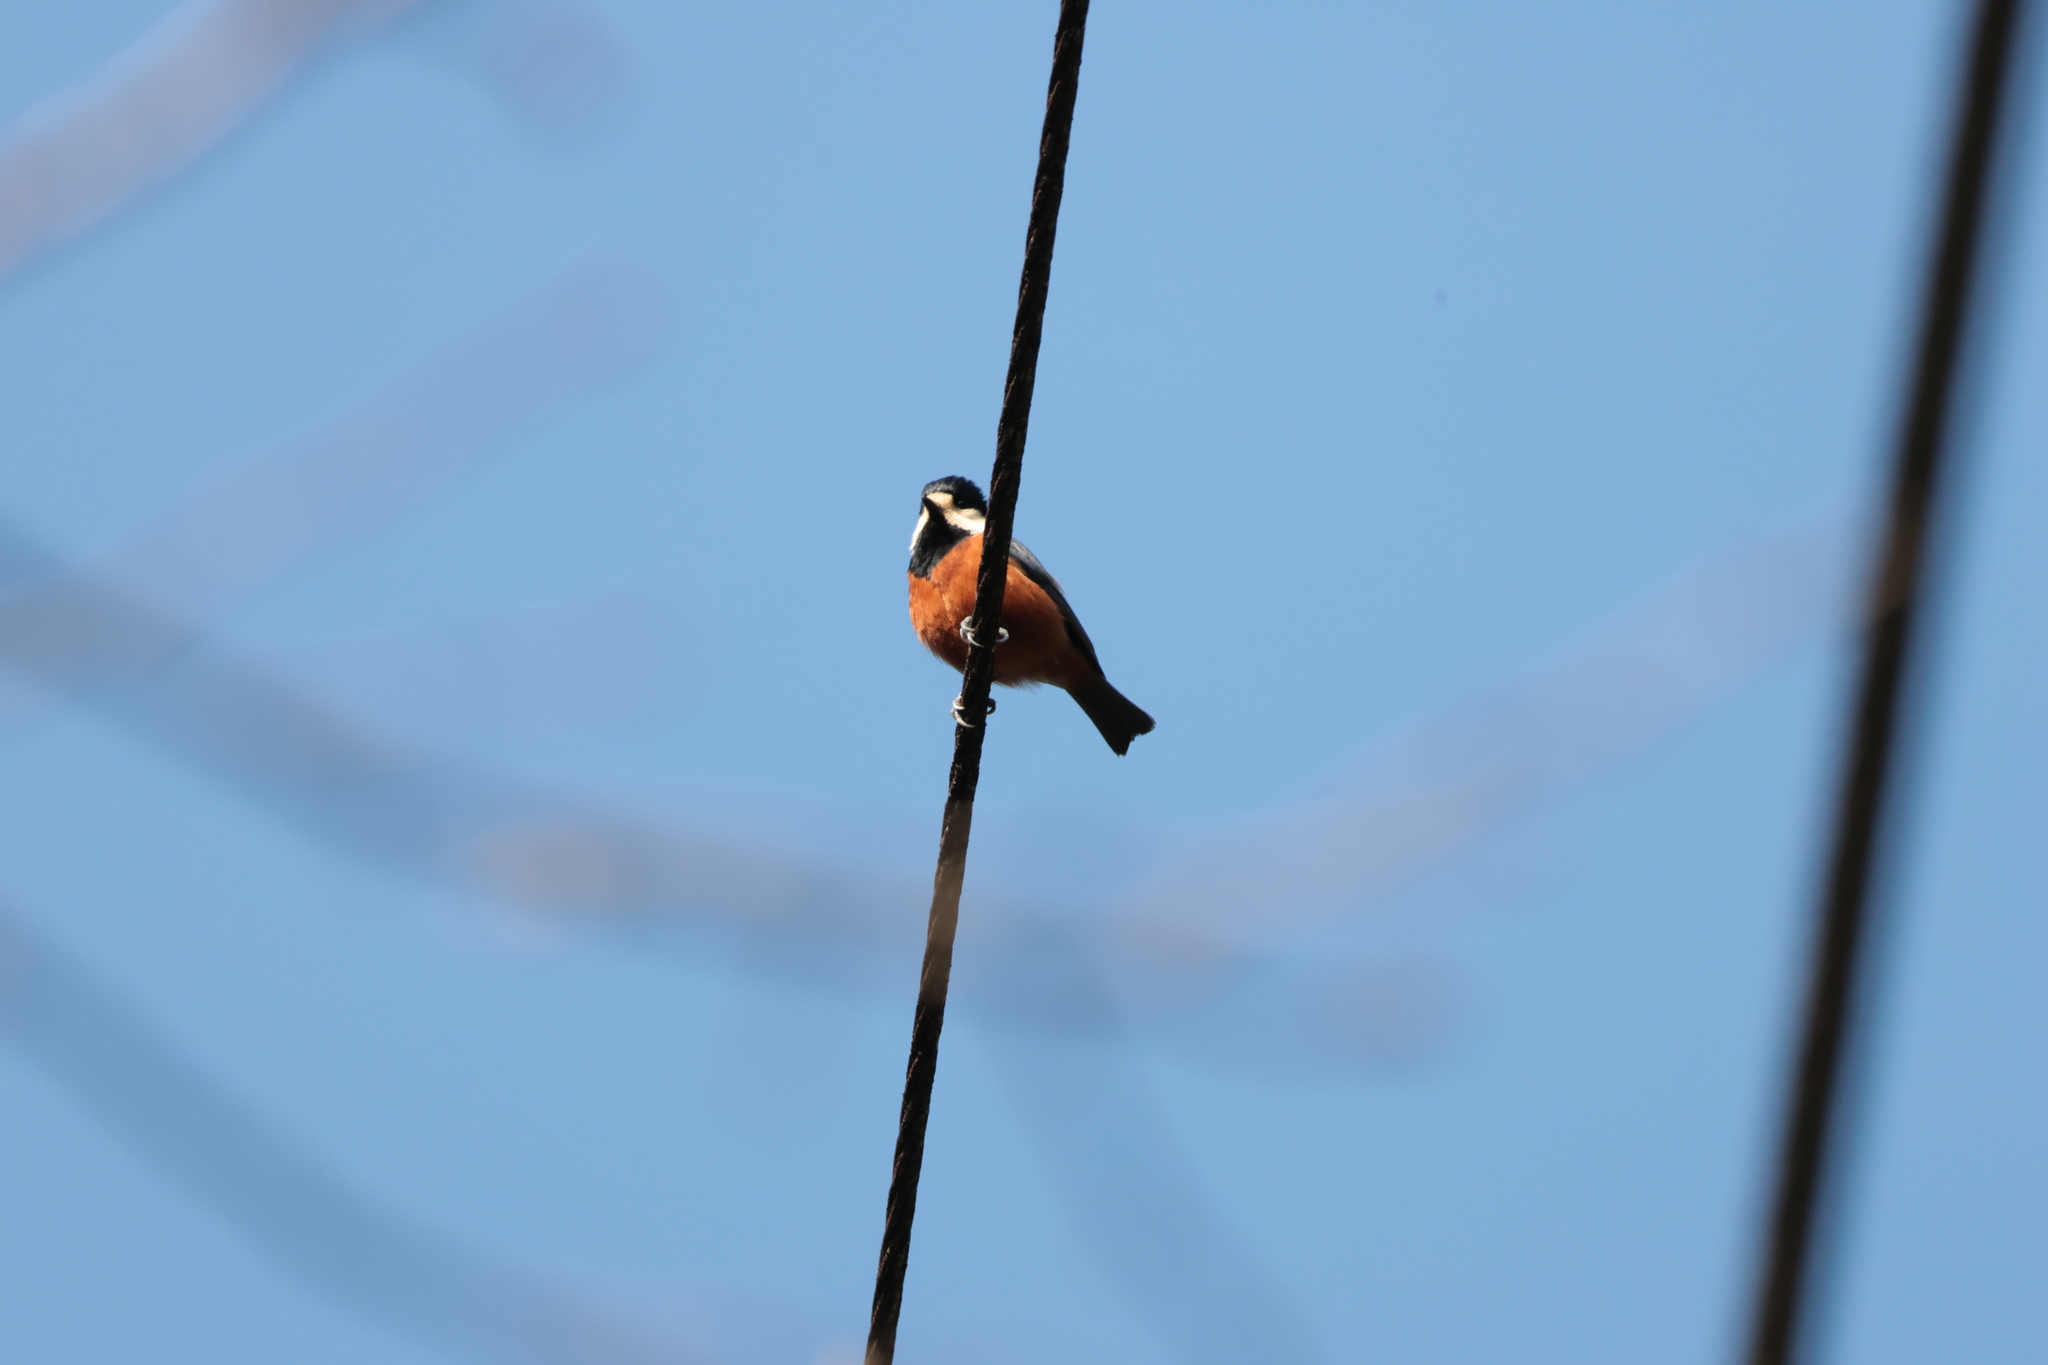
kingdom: Animalia
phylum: Chordata
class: Aves
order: Passeriformes
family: Paridae
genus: Poecile
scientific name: Poecile varius
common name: Varied tit
